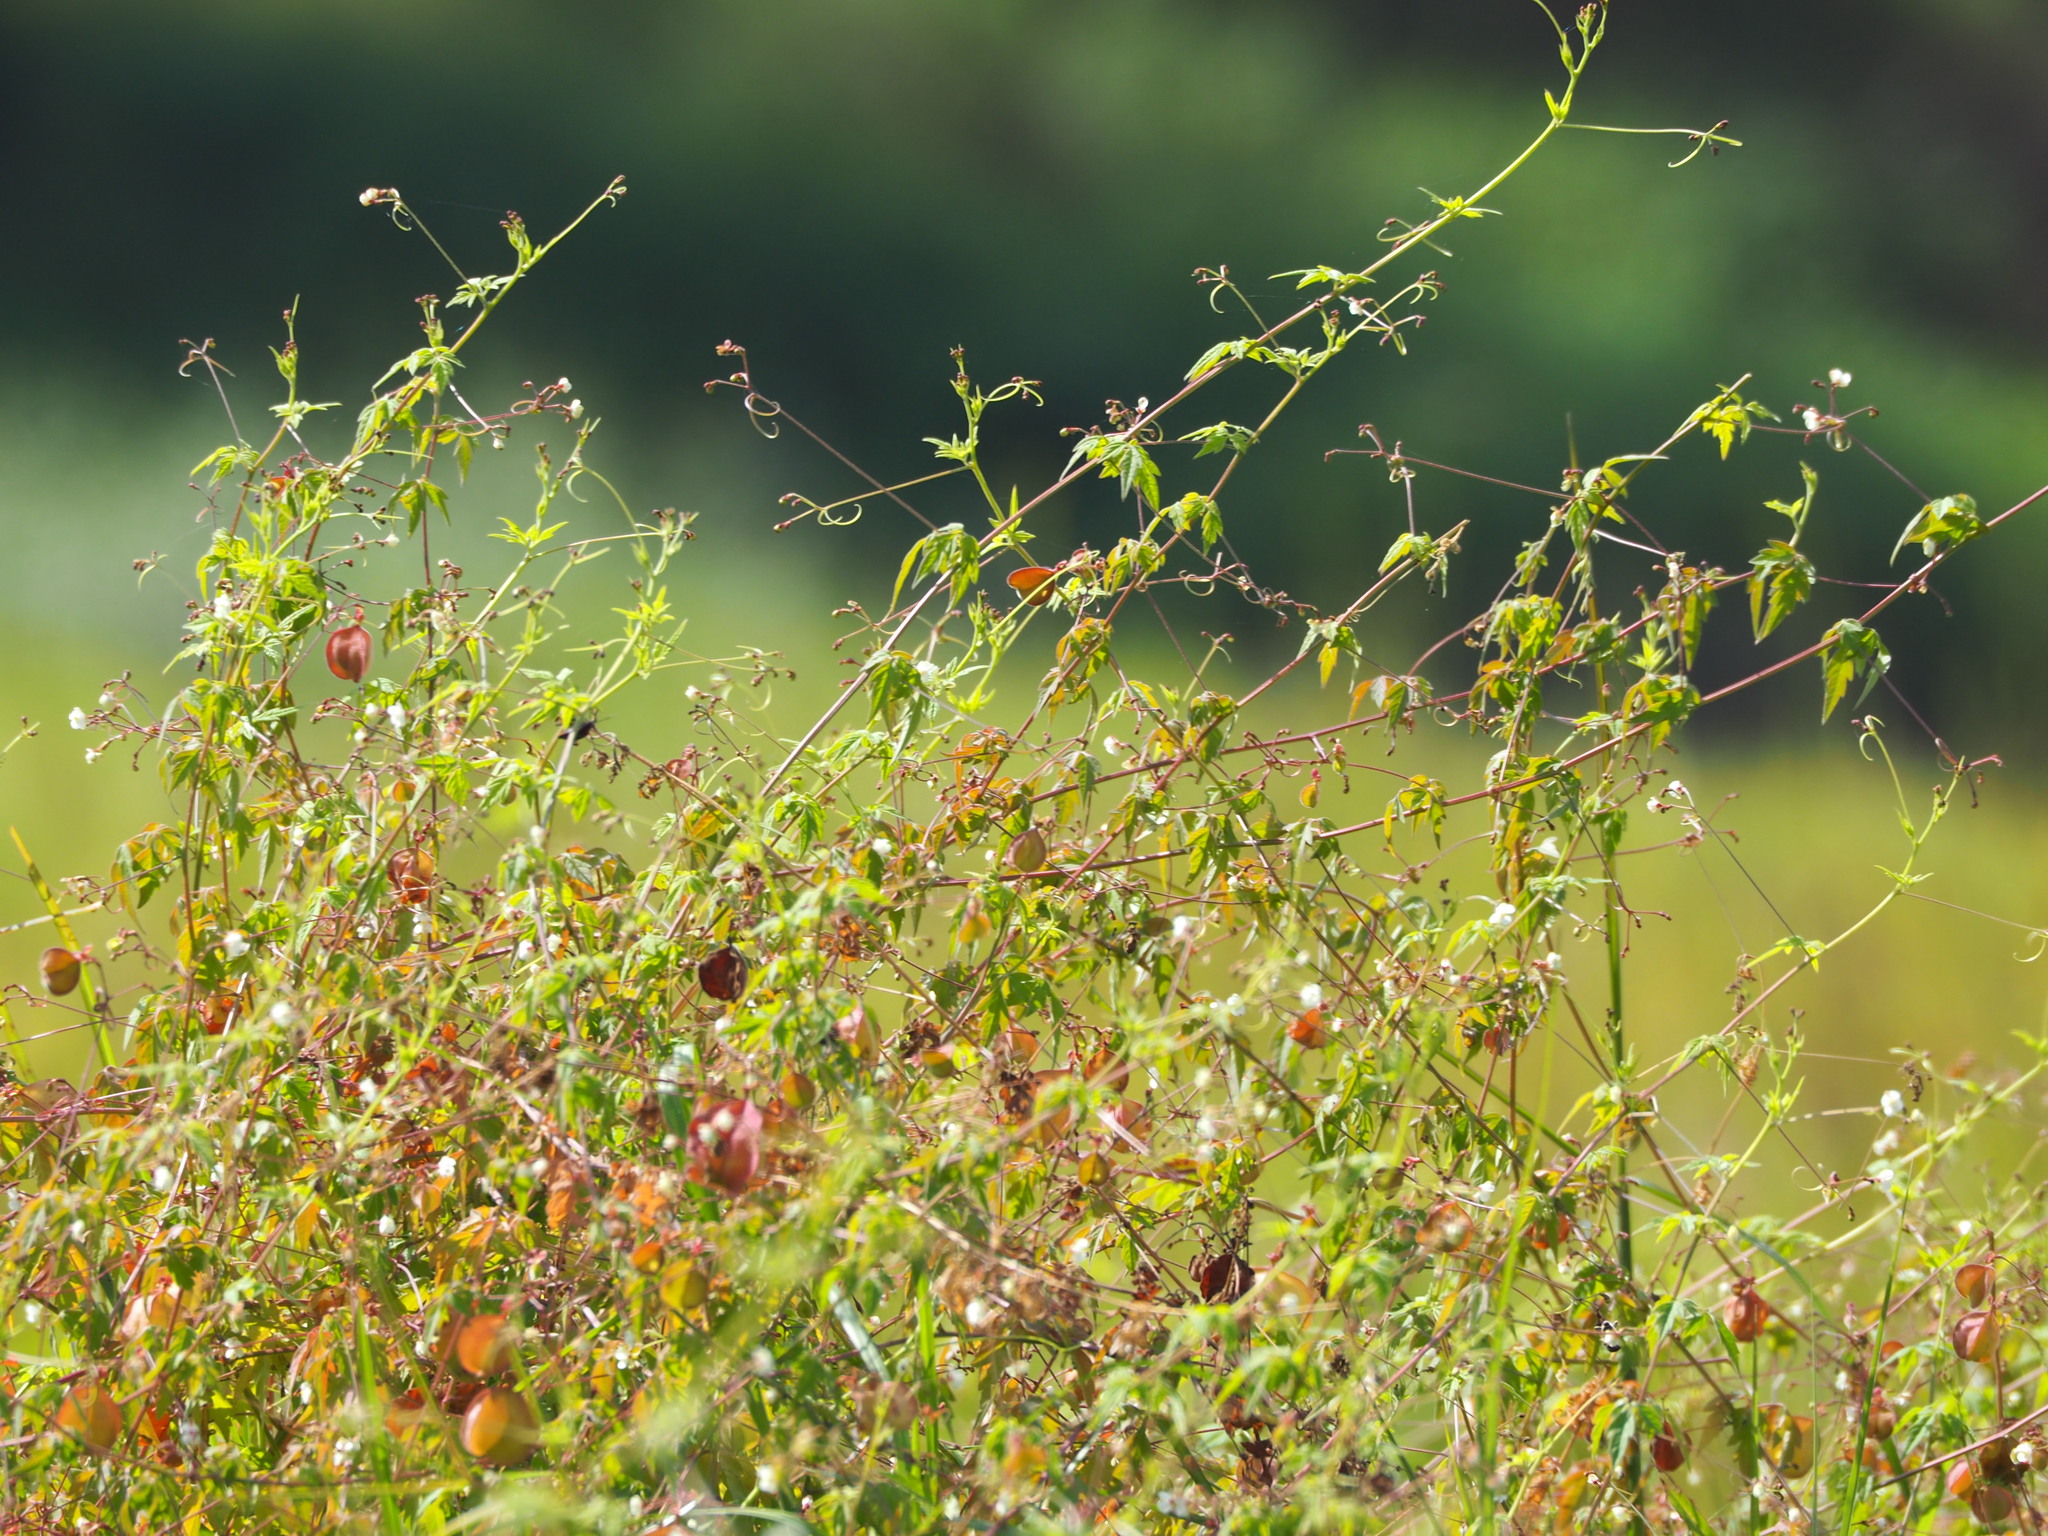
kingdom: Plantae
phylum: Tracheophyta
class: Magnoliopsida
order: Sapindales
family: Sapindaceae
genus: Cardiospermum
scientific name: Cardiospermum halicacabum
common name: Balloon vine
